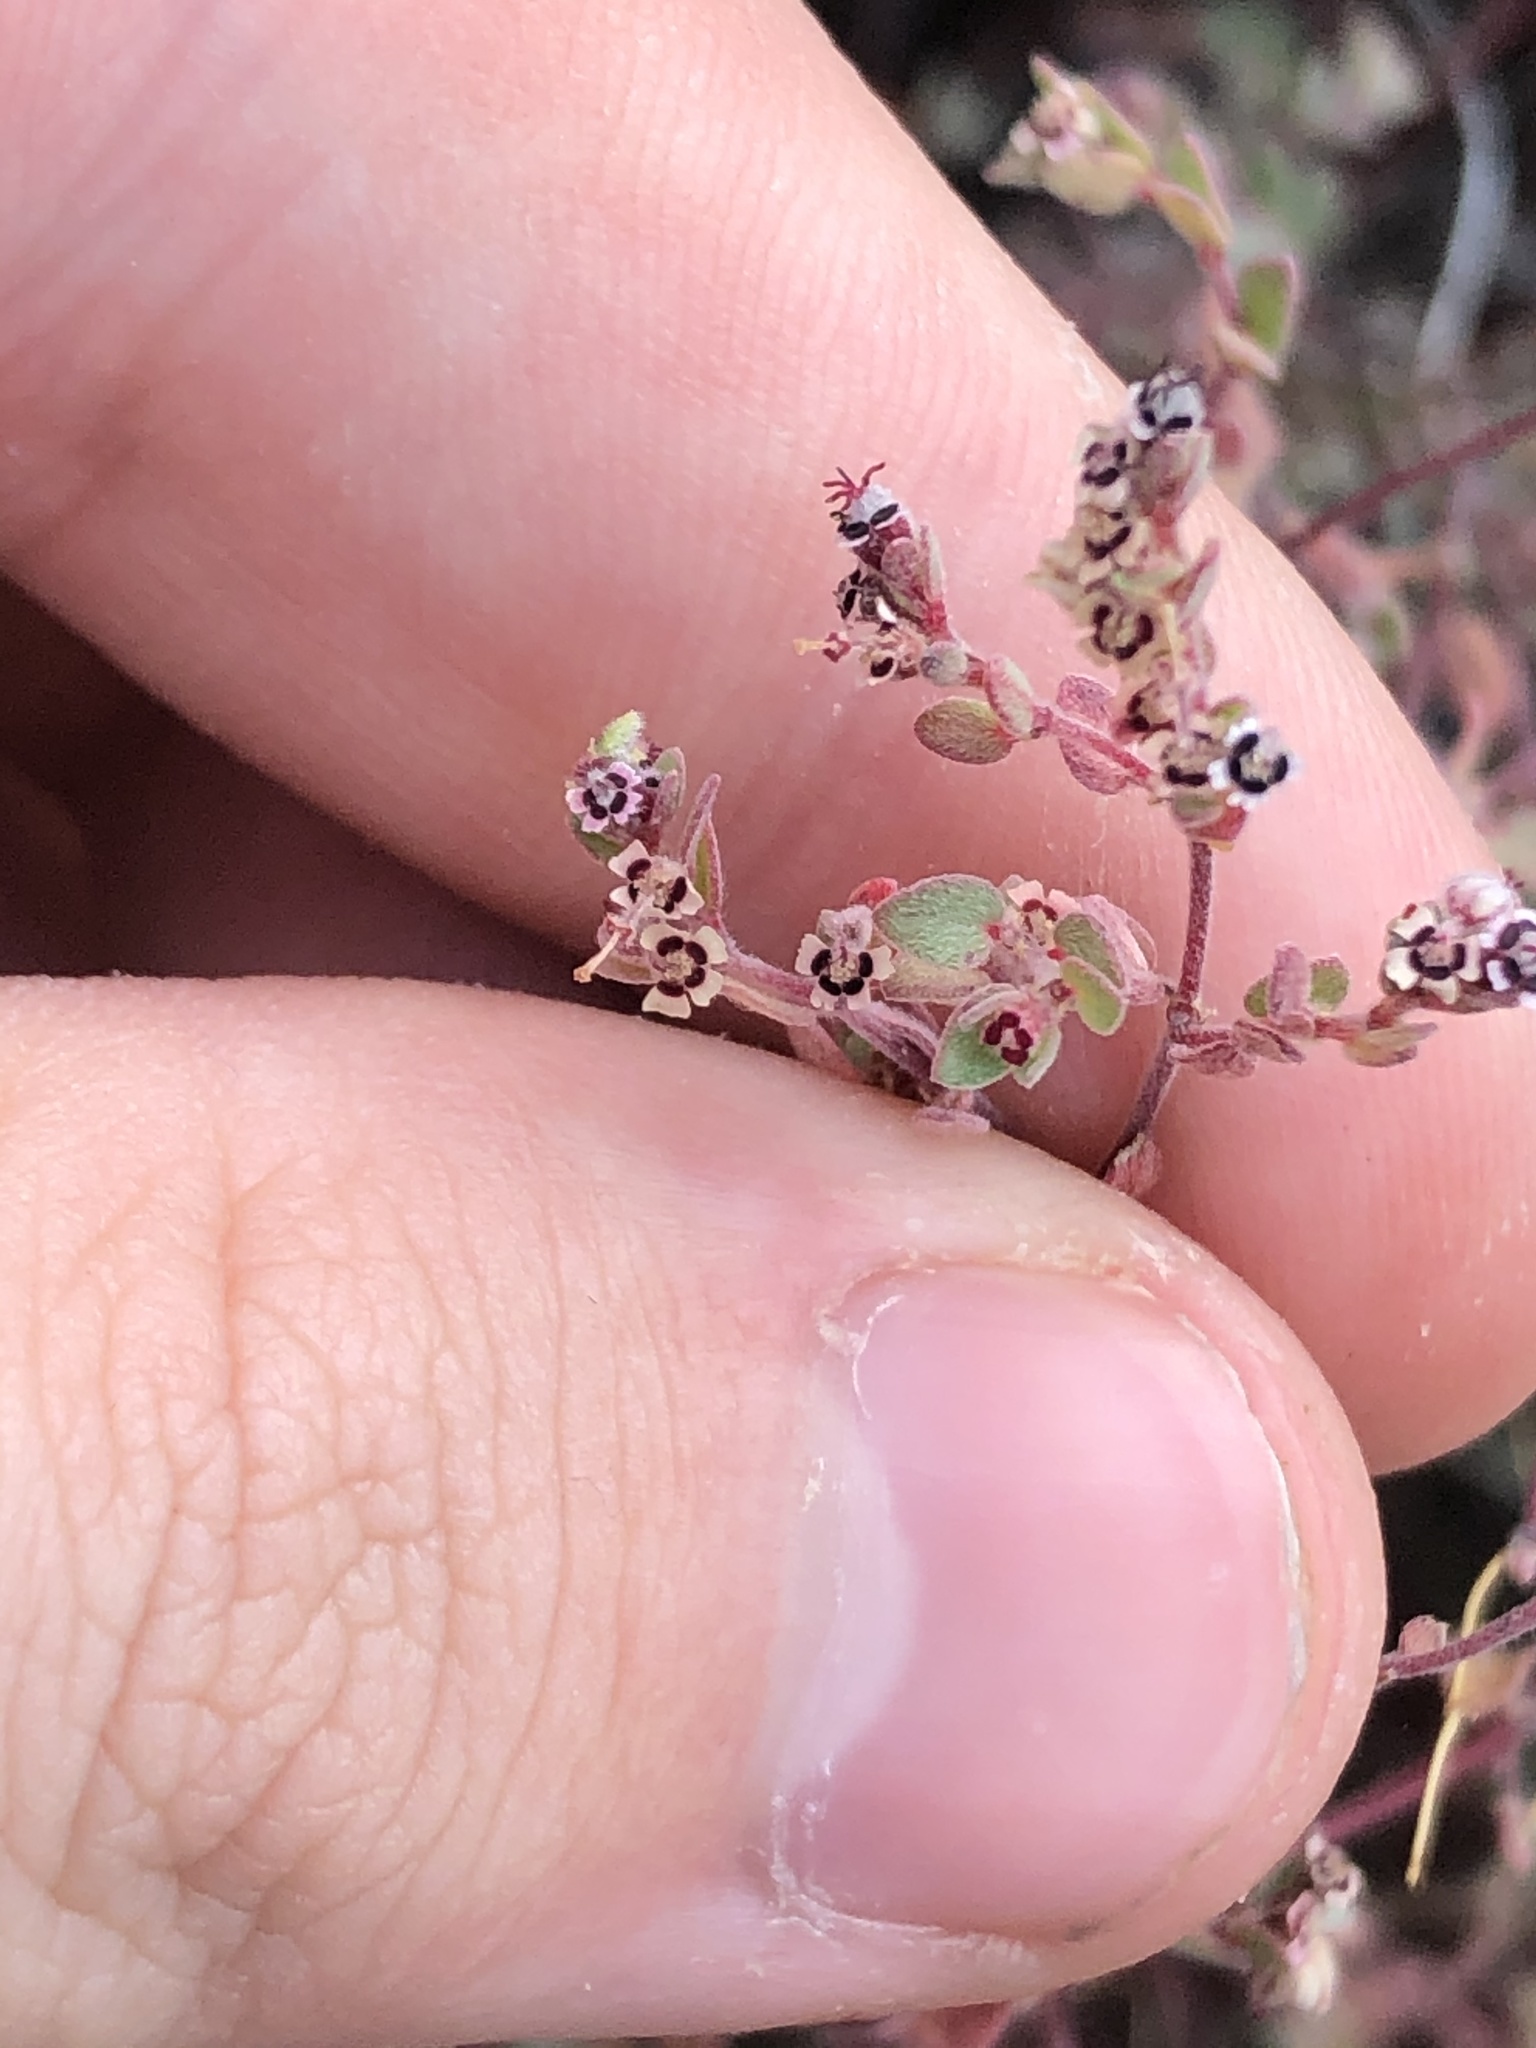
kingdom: Plantae
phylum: Tracheophyta
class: Magnoliopsida
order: Malpighiales
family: Euphorbiaceae
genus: Euphorbia
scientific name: Euphorbia melanadenia
